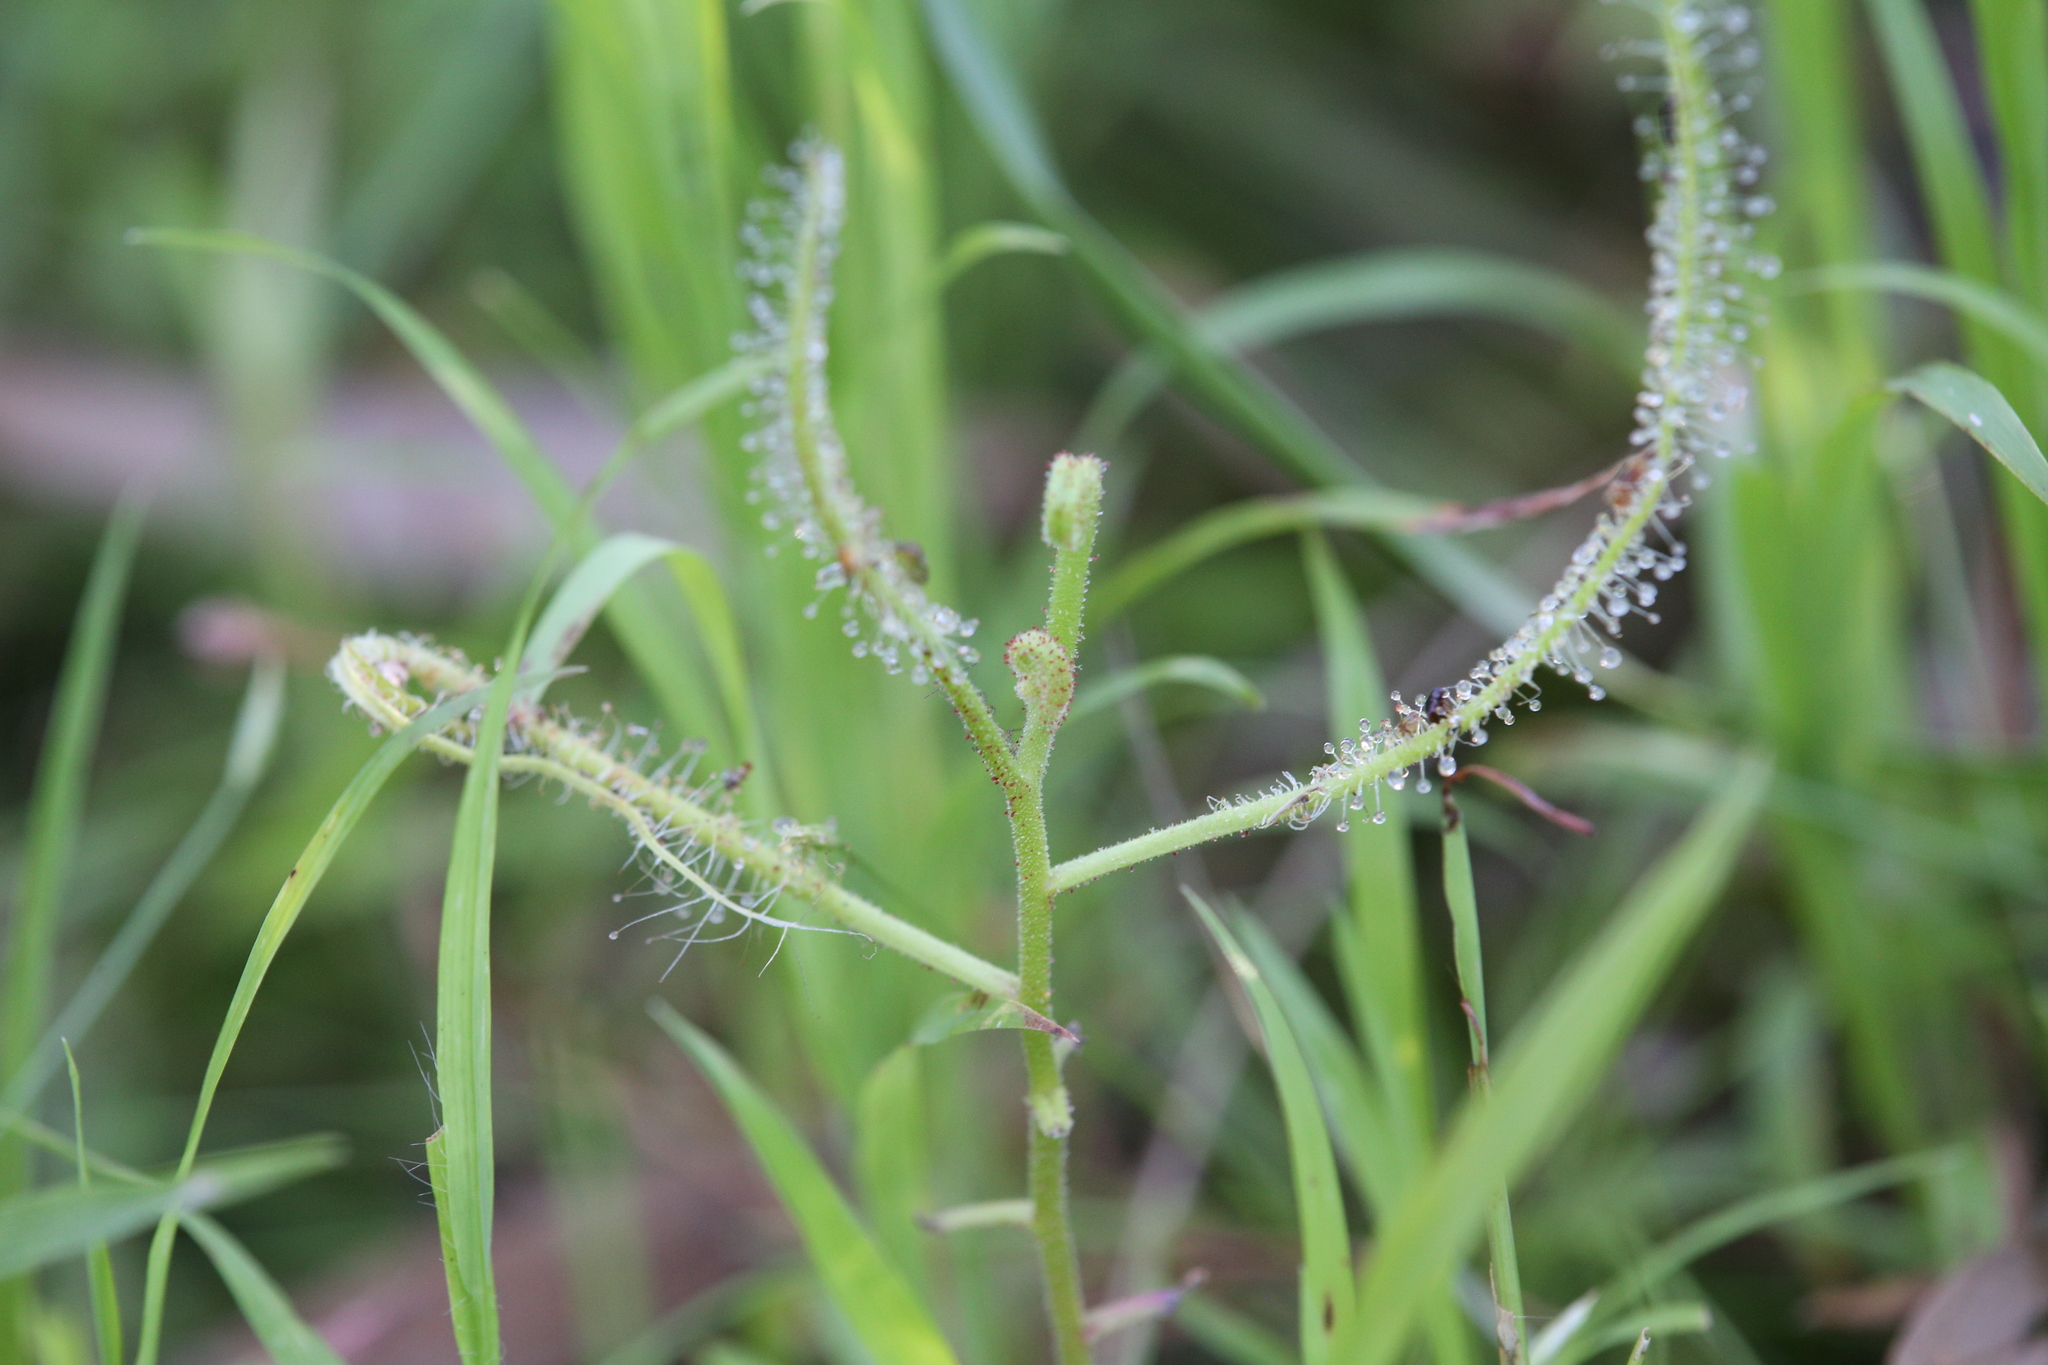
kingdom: Plantae
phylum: Tracheophyta
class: Magnoliopsida
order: Caryophyllales
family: Droseraceae
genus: Drosera
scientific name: Drosera indica
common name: Indian sundew
